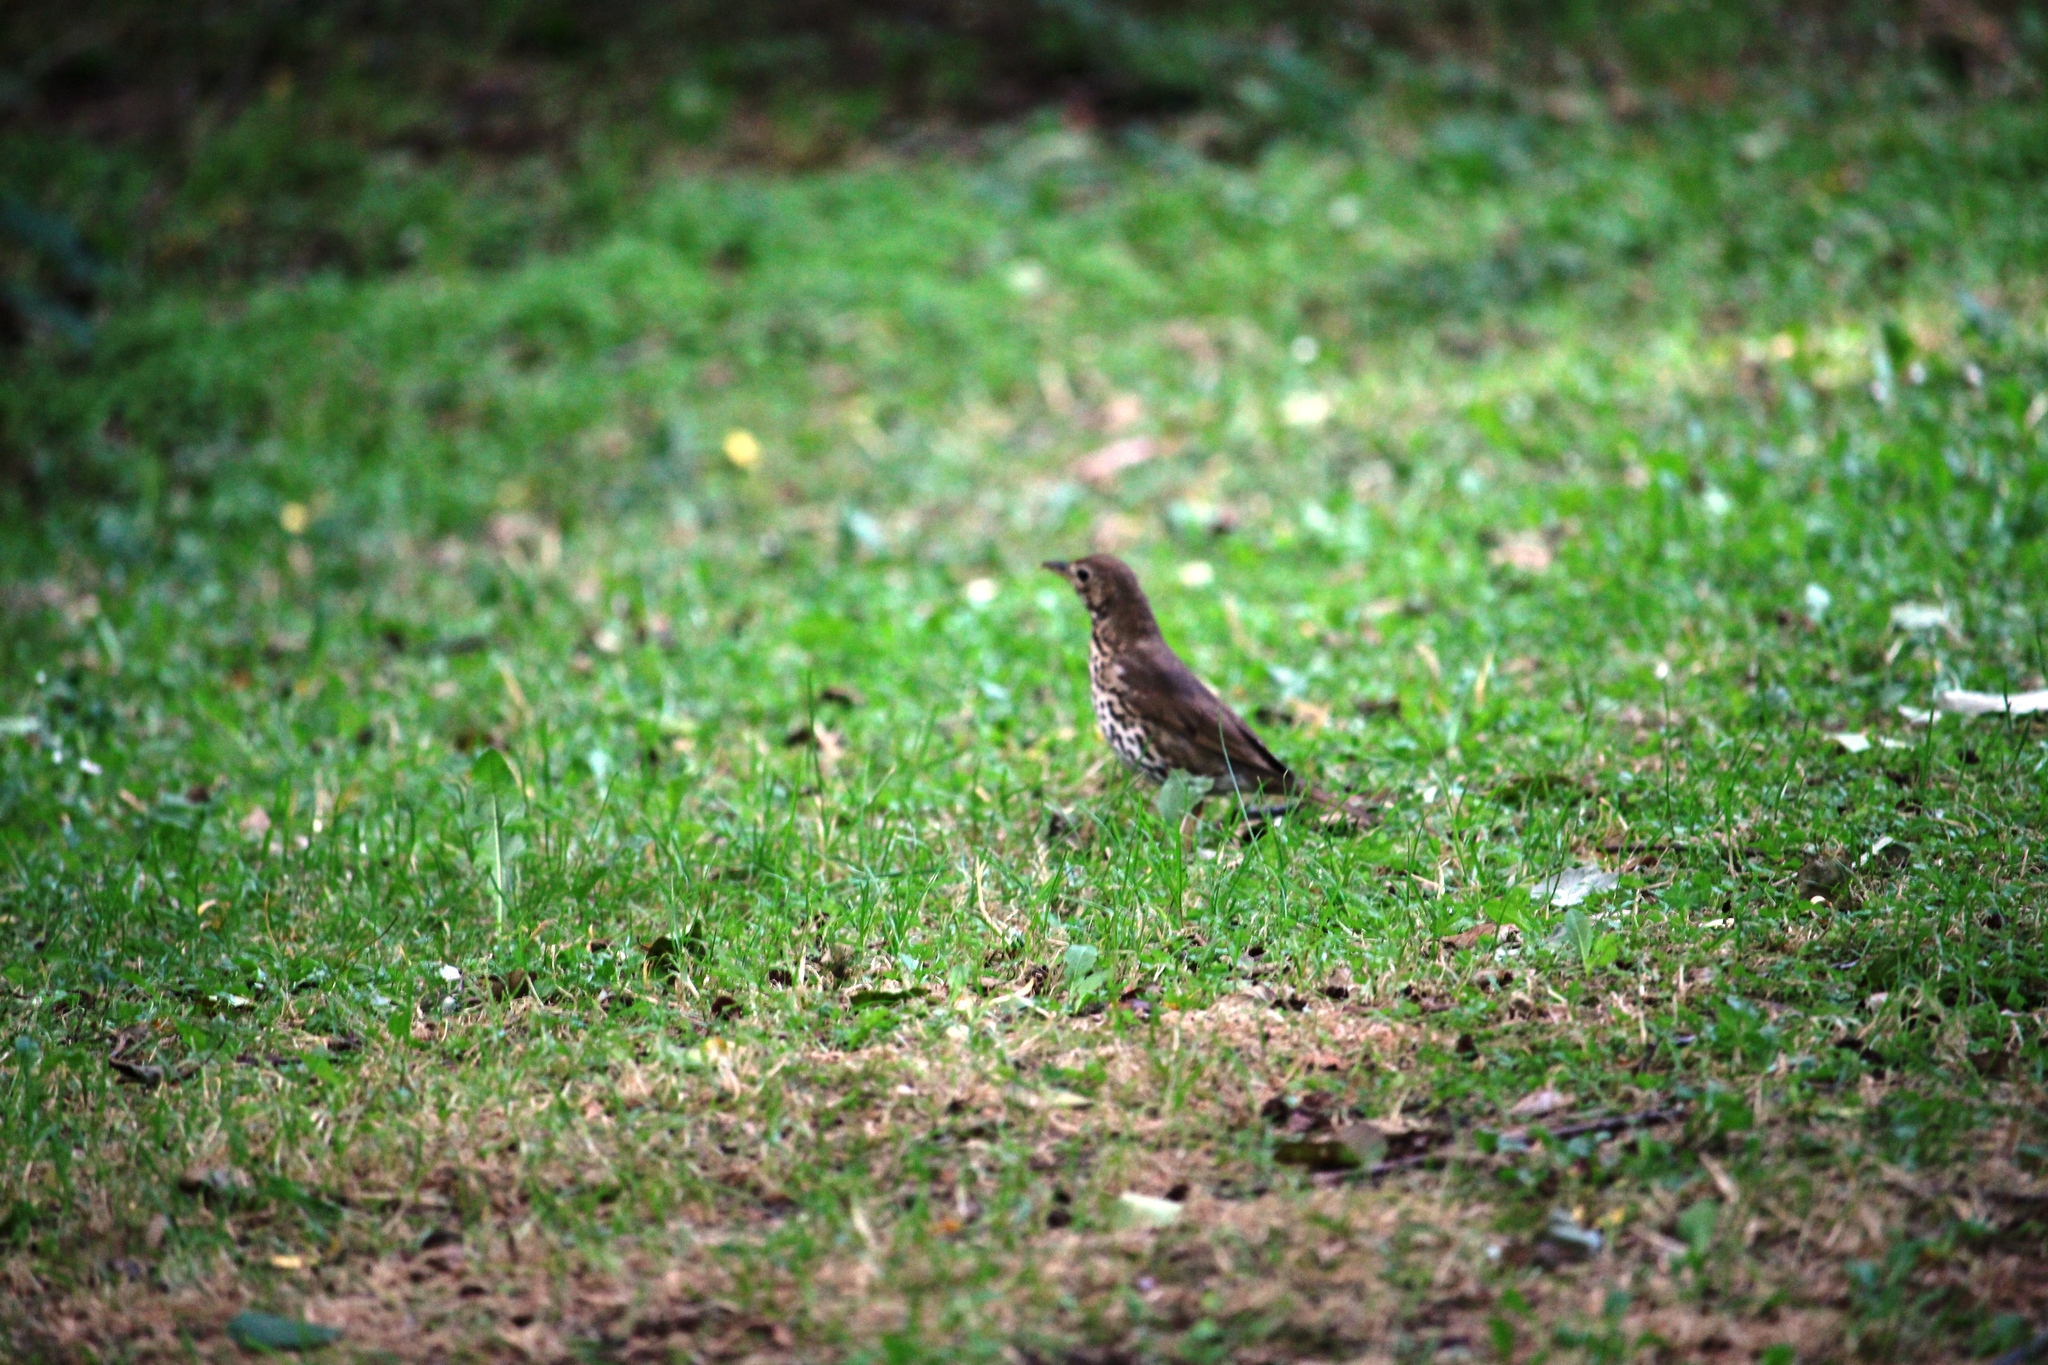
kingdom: Animalia
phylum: Chordata
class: Aves
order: Passeriformes
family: Turdidae
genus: Turdus
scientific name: Turdus philomelos
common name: Song thrush
